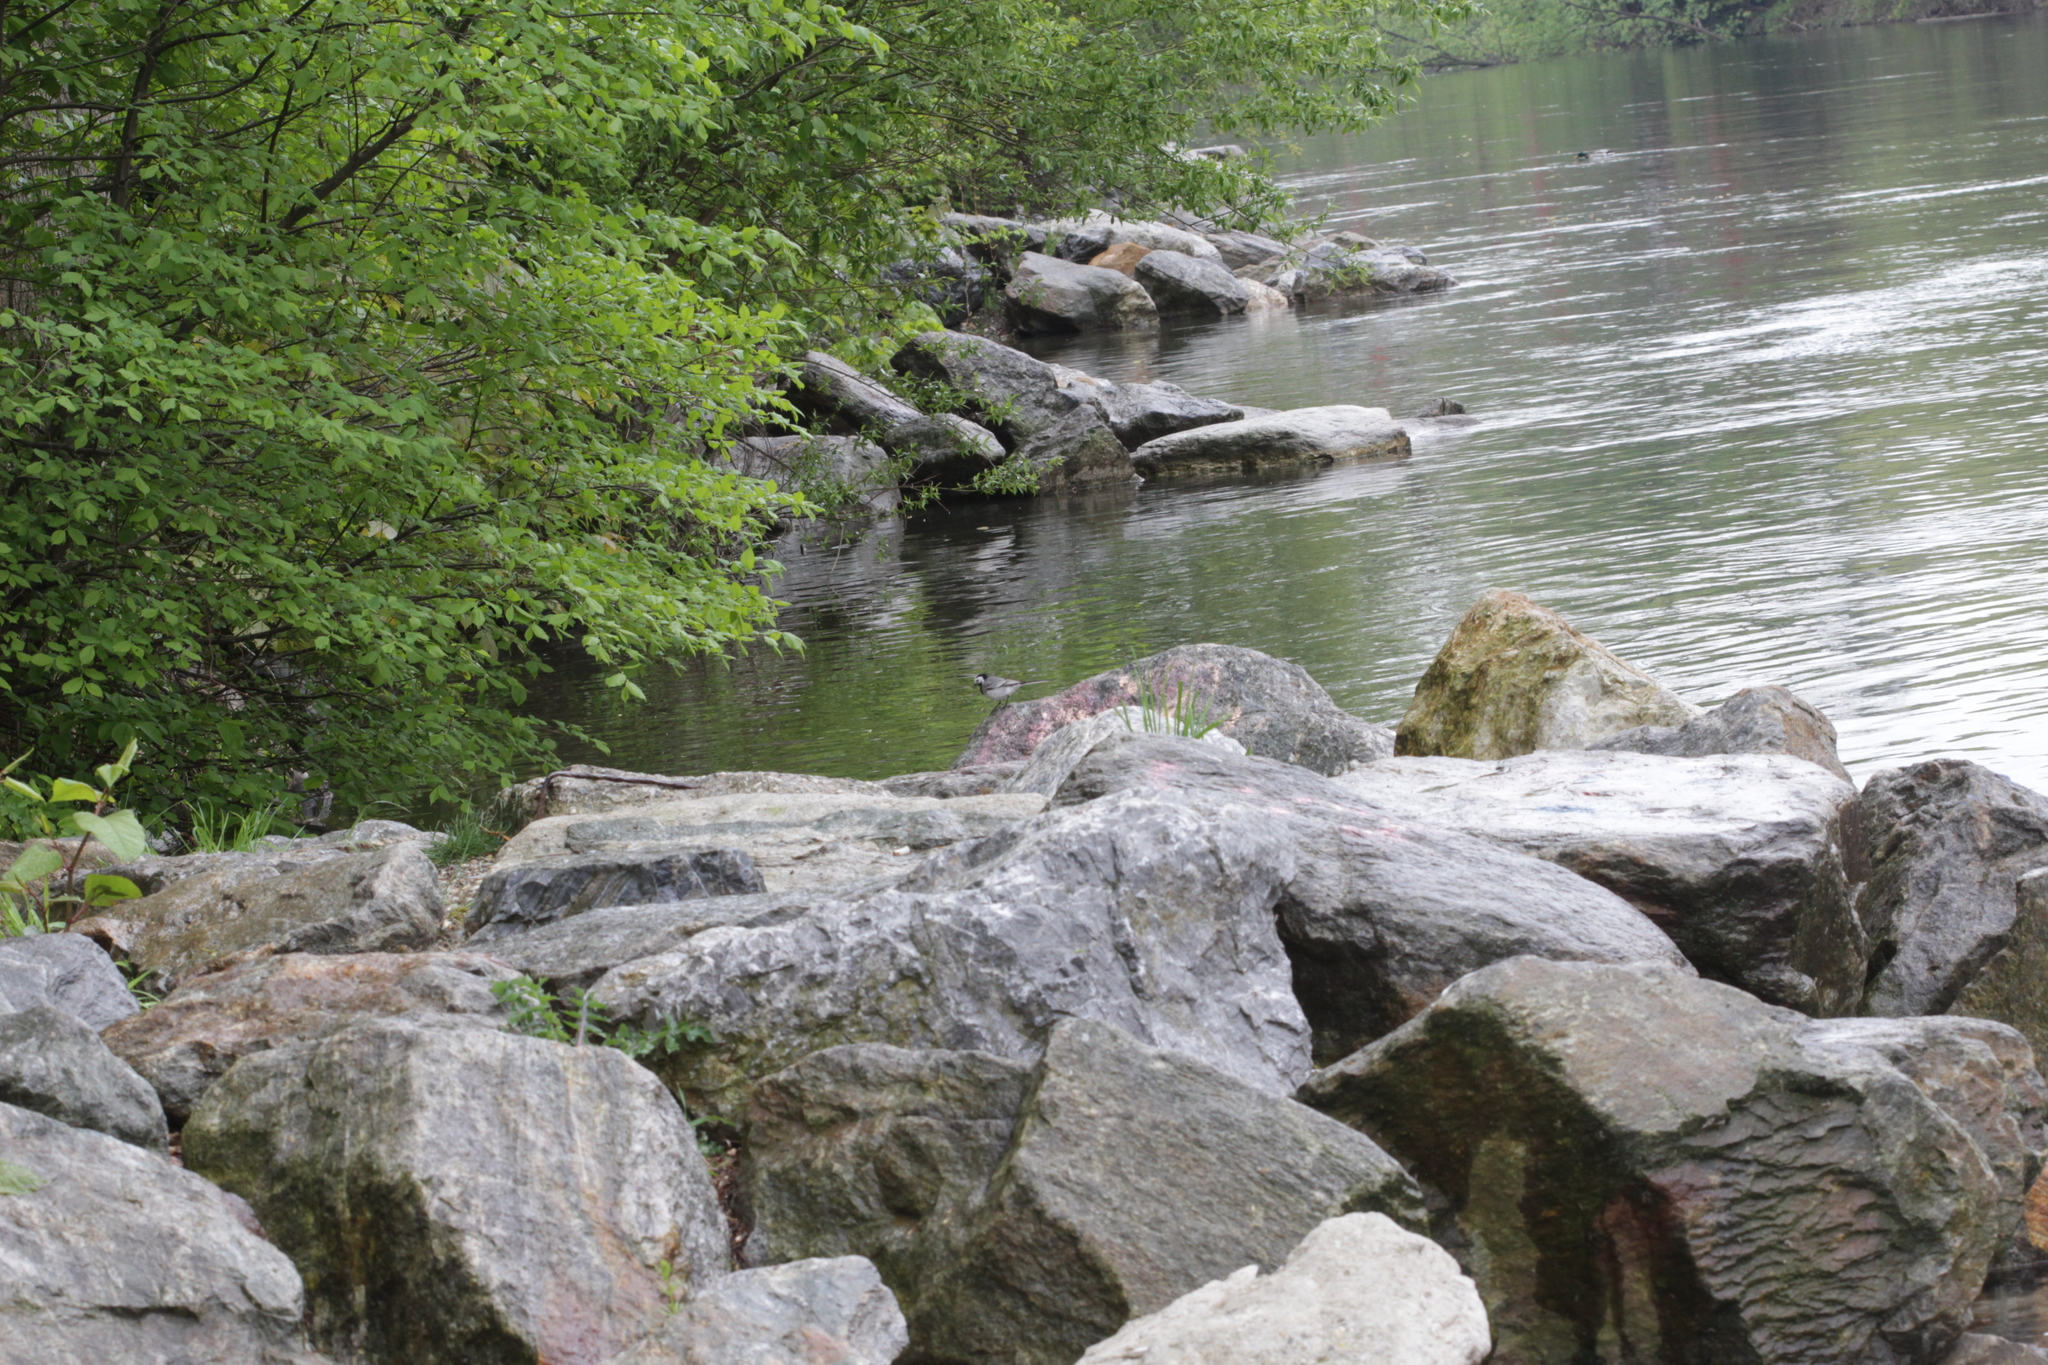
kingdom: Animalia
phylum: Chordata
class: Aves
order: Passeriformes
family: Motacillidae
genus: Motacilla
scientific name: Motacilla alba
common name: White wagtail
